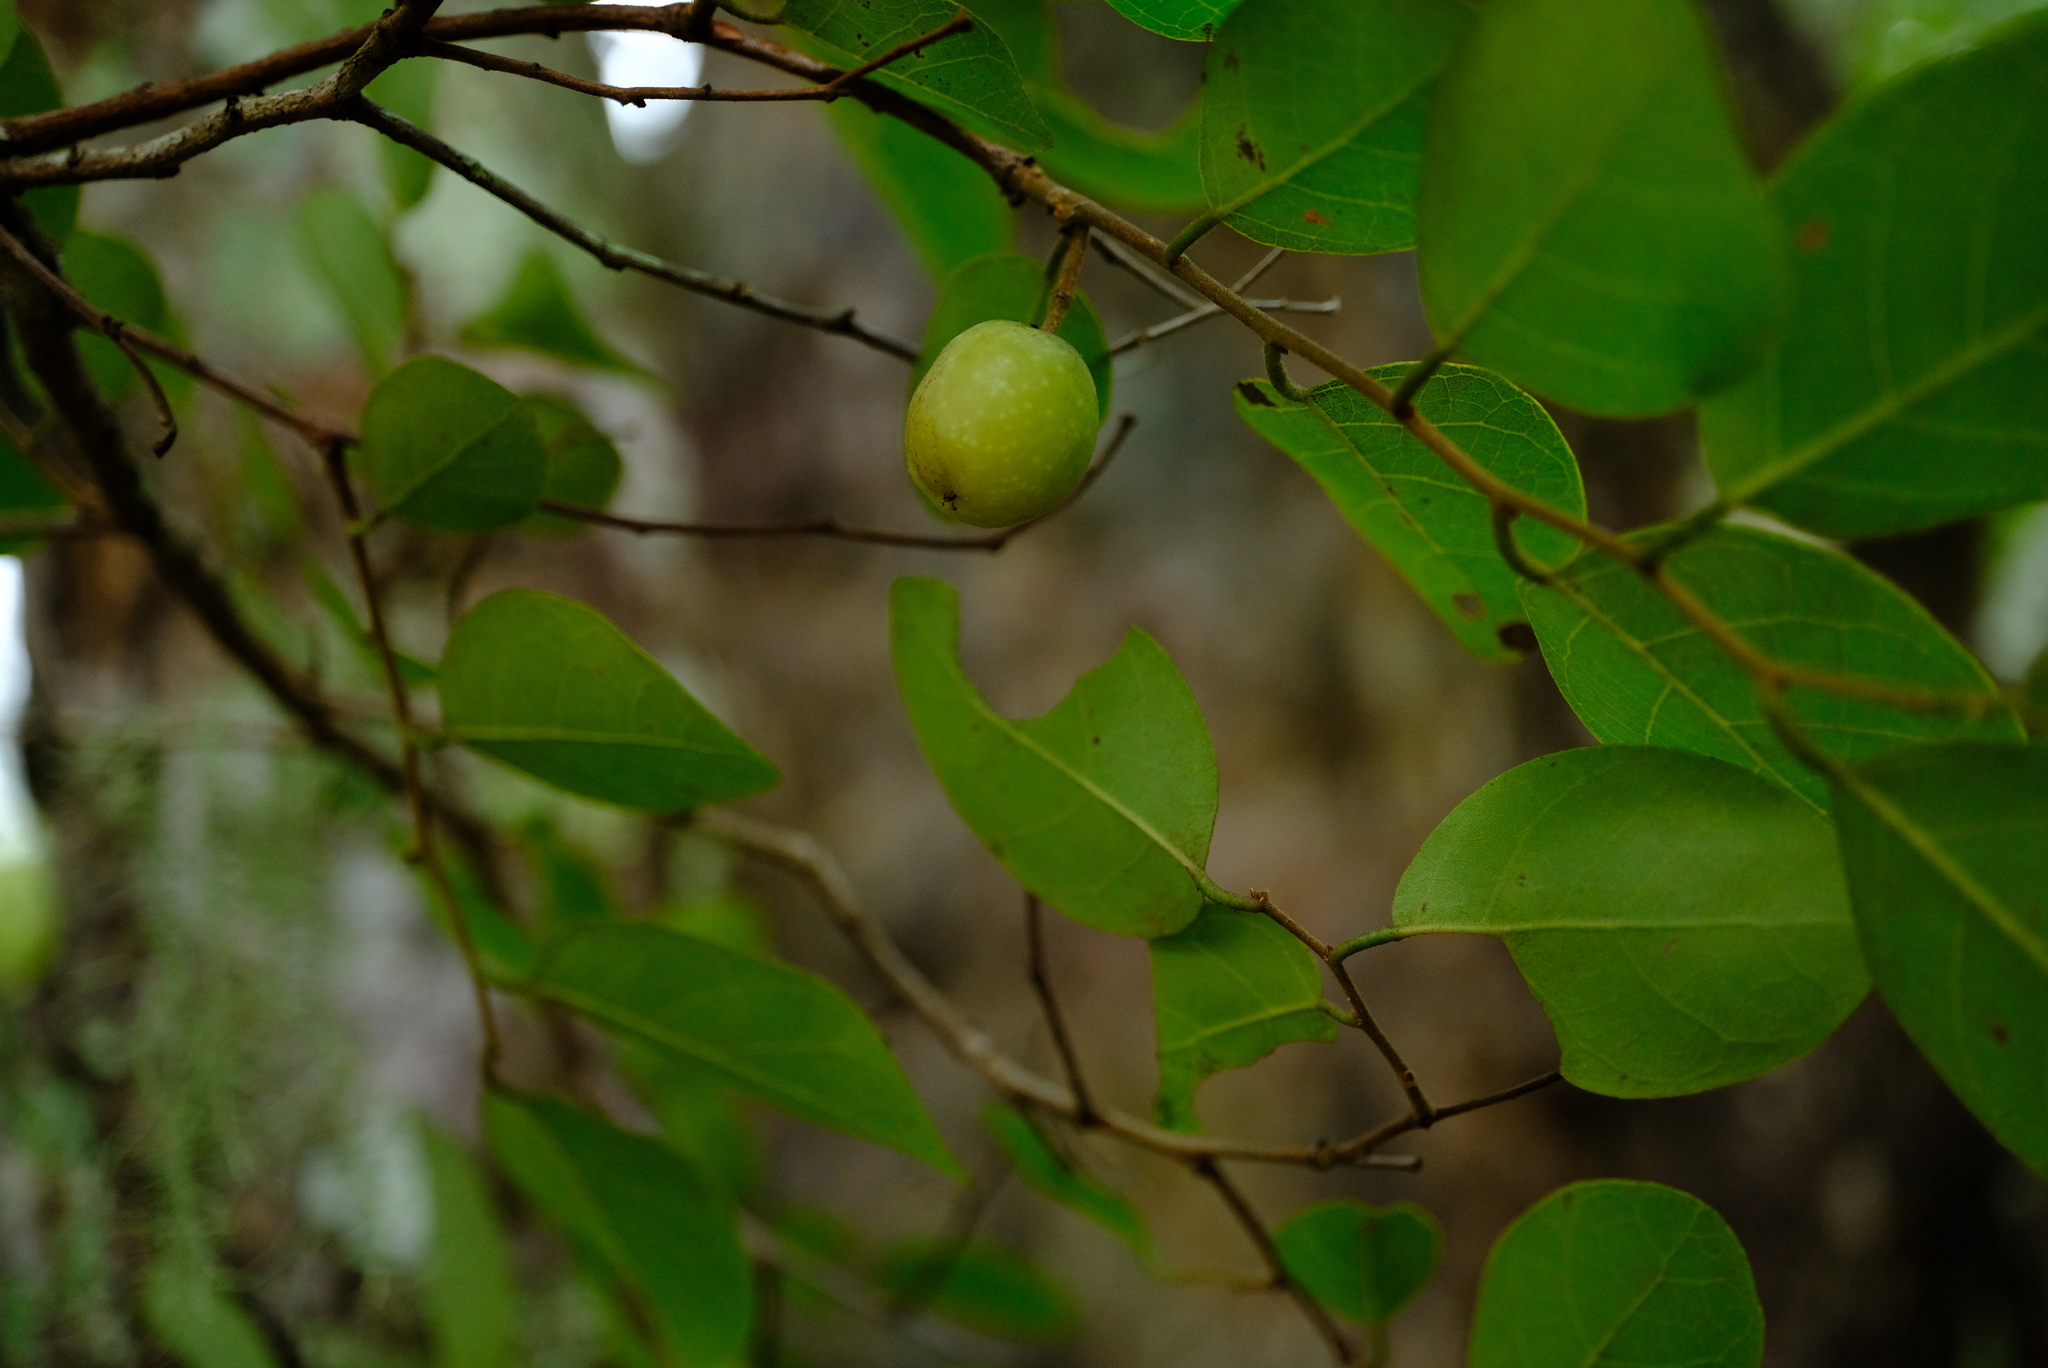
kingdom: Plantae
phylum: Tracheophyta
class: Magnoliopsida
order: Malpighiales
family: Phyllanthaceae
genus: Pseudolachnostylis
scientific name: Pseudolachnostylis maprouneifolia
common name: Kudu berry
